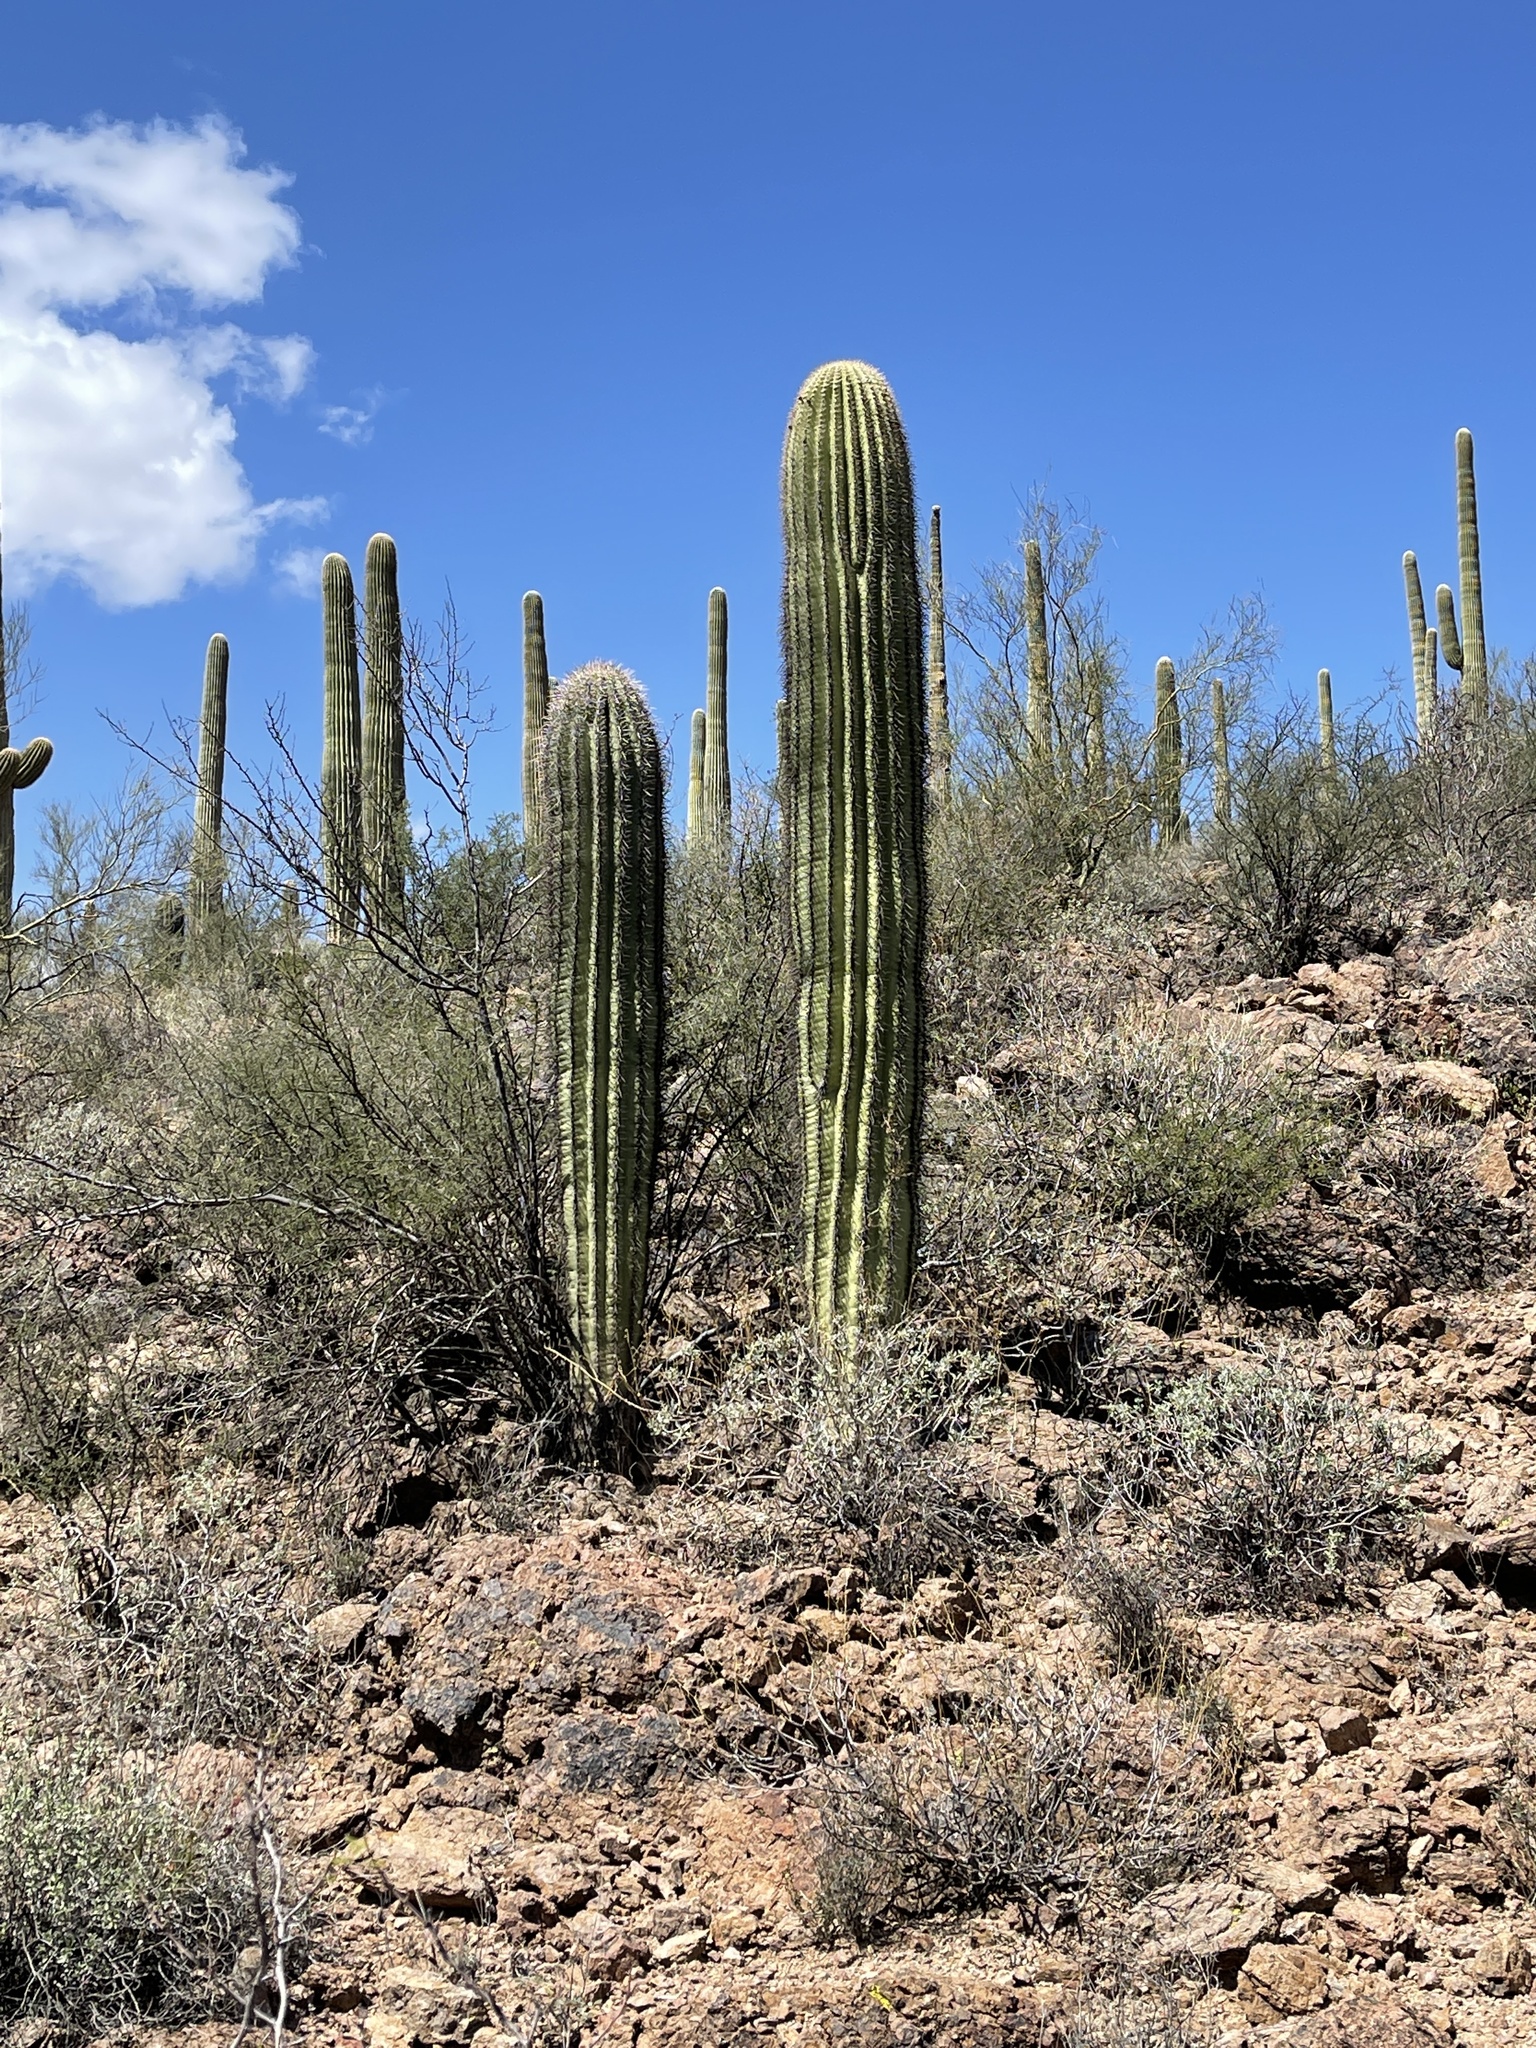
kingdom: Plantae
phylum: Tracheophyta
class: Magnoliopsida
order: Caryophyllales
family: Cactaceae
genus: Carnegiea
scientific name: Carnegiea gigantea
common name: Saguaro
